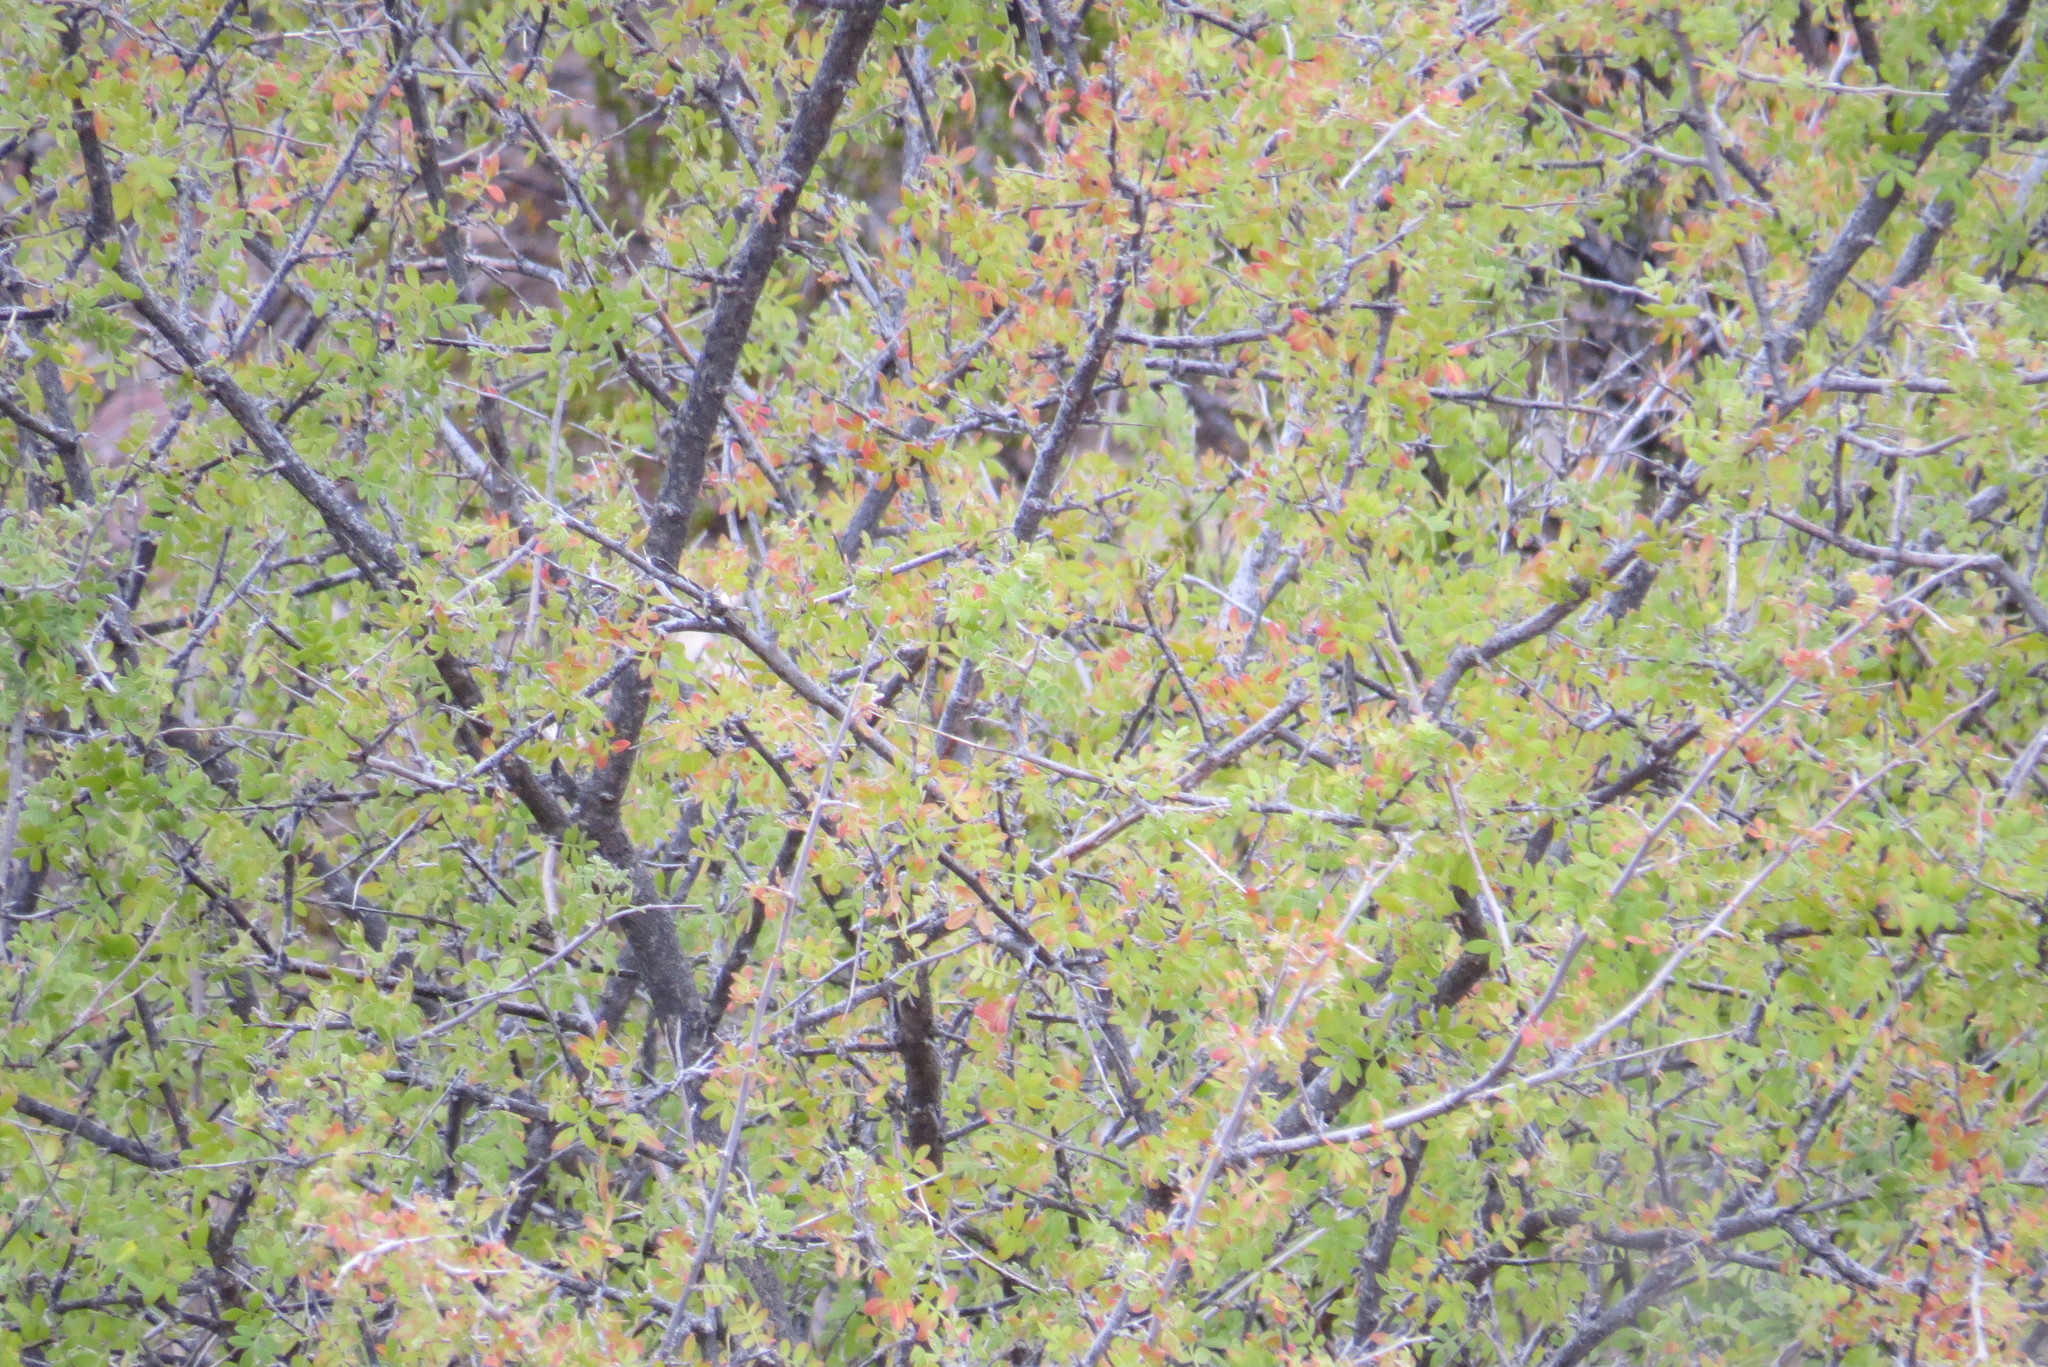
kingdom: Plantae
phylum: Tracheophyta
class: Magnoliopsida
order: Sapindales
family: Anacardiaceae
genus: Rhus
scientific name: Rhus microphylla
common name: Desert sumac
